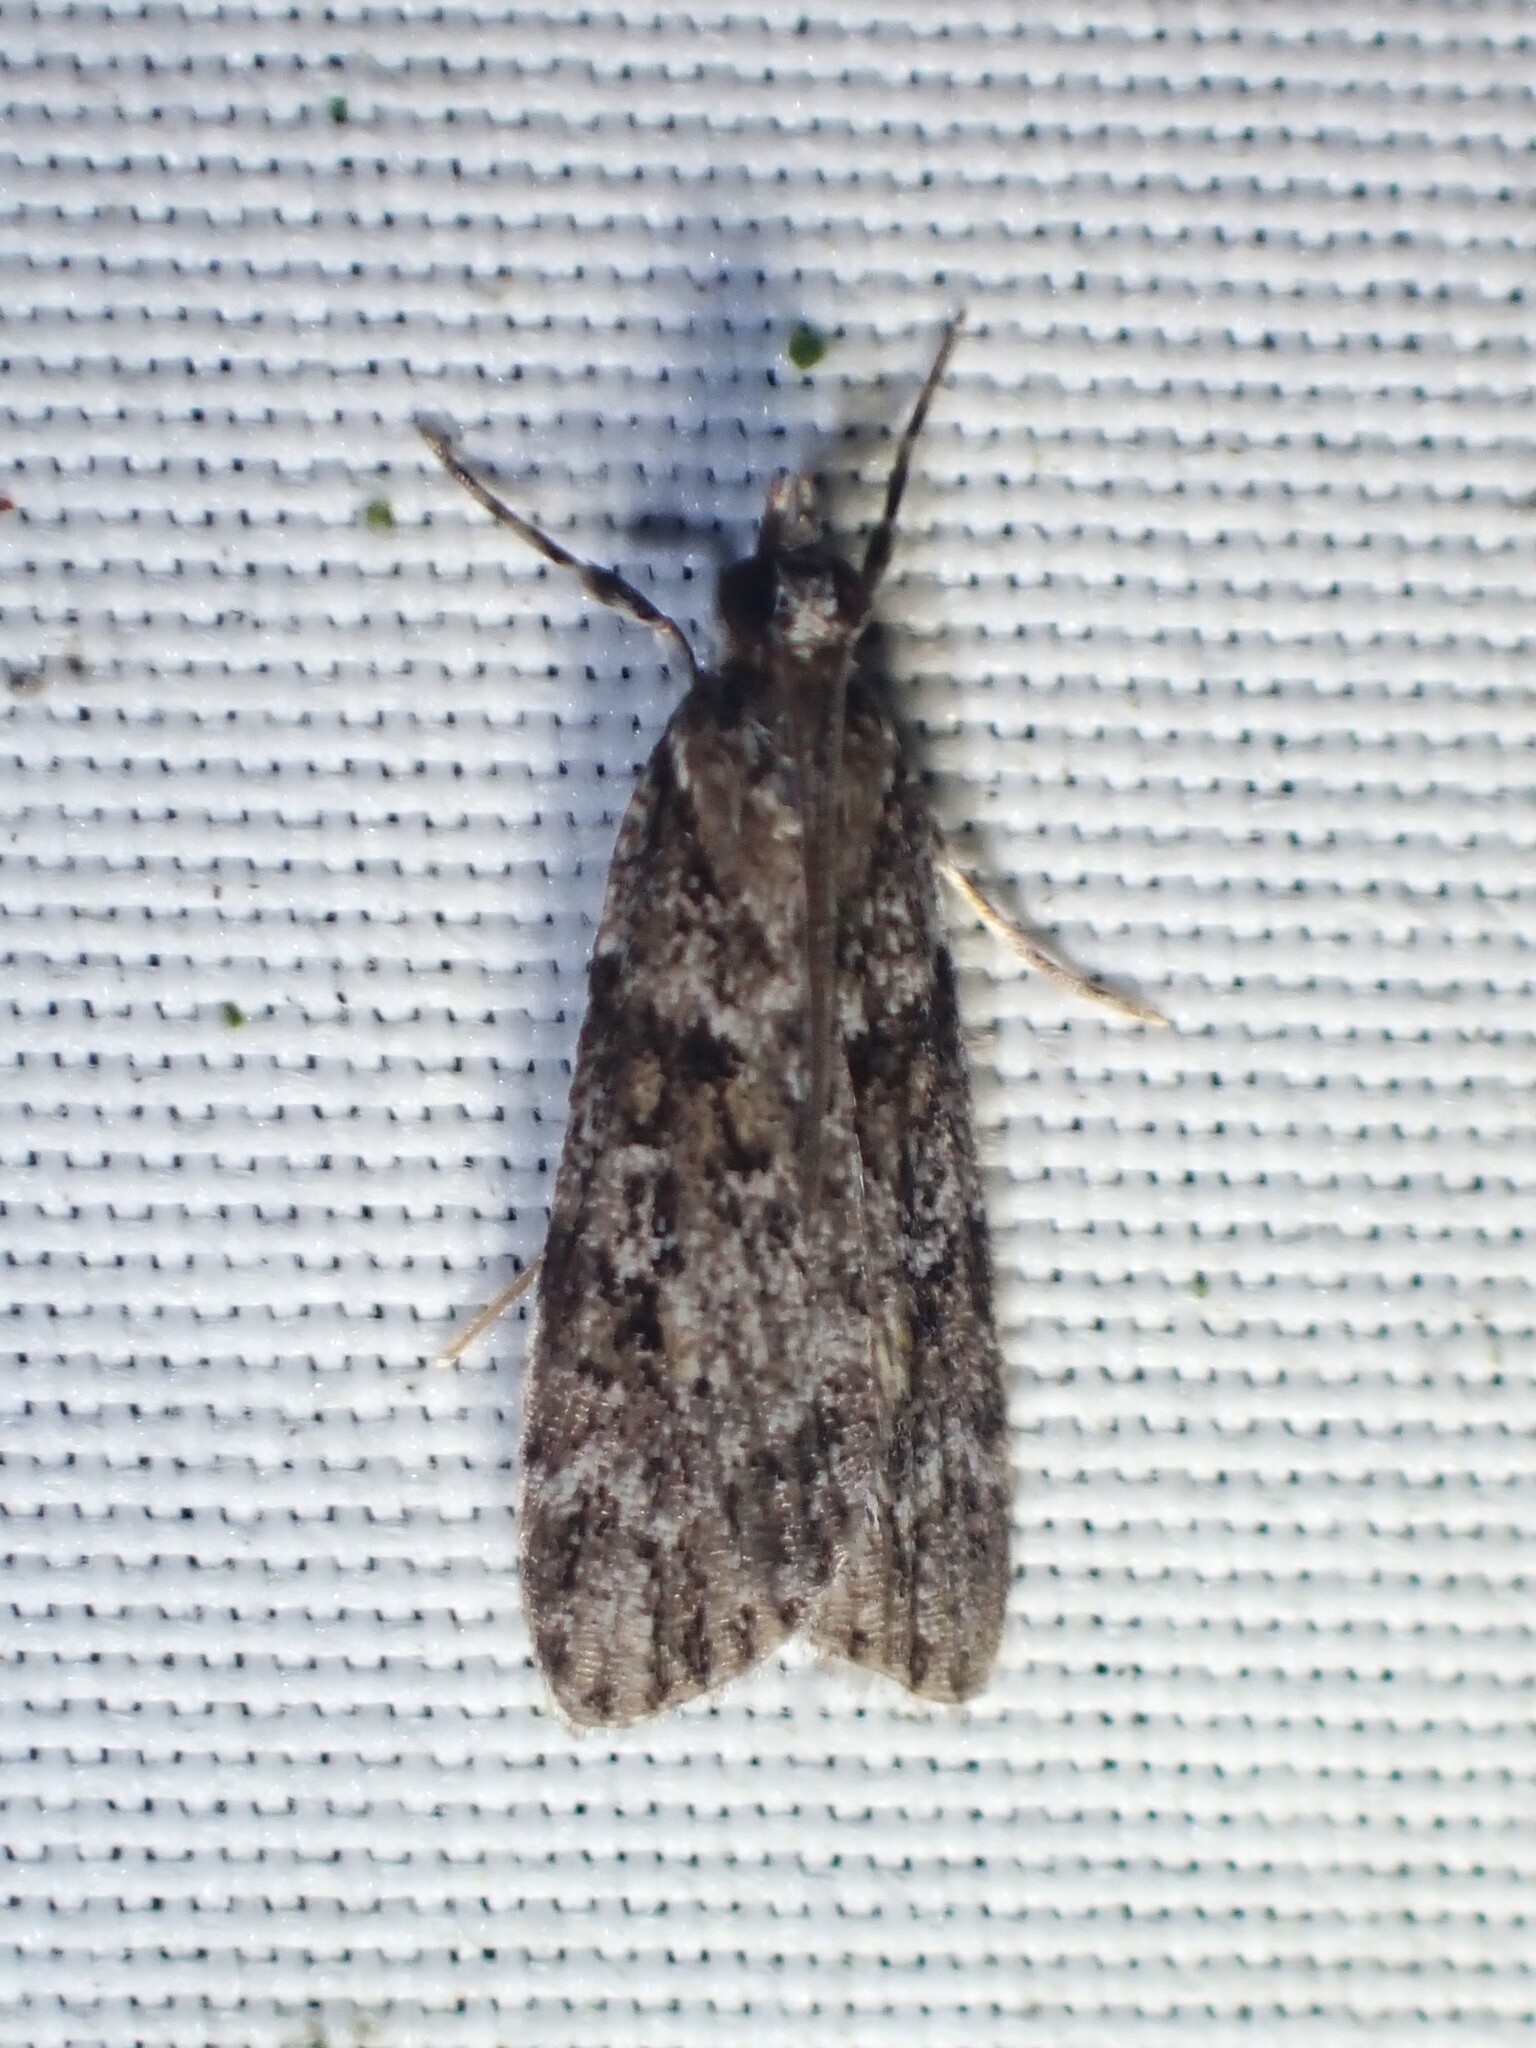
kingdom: Animalia
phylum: Arthropoda
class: Insecta
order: Lepidoptera
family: Crambidae
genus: Scoparia
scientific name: Scoparia biplagialis
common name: Double-striped scoparia moth
